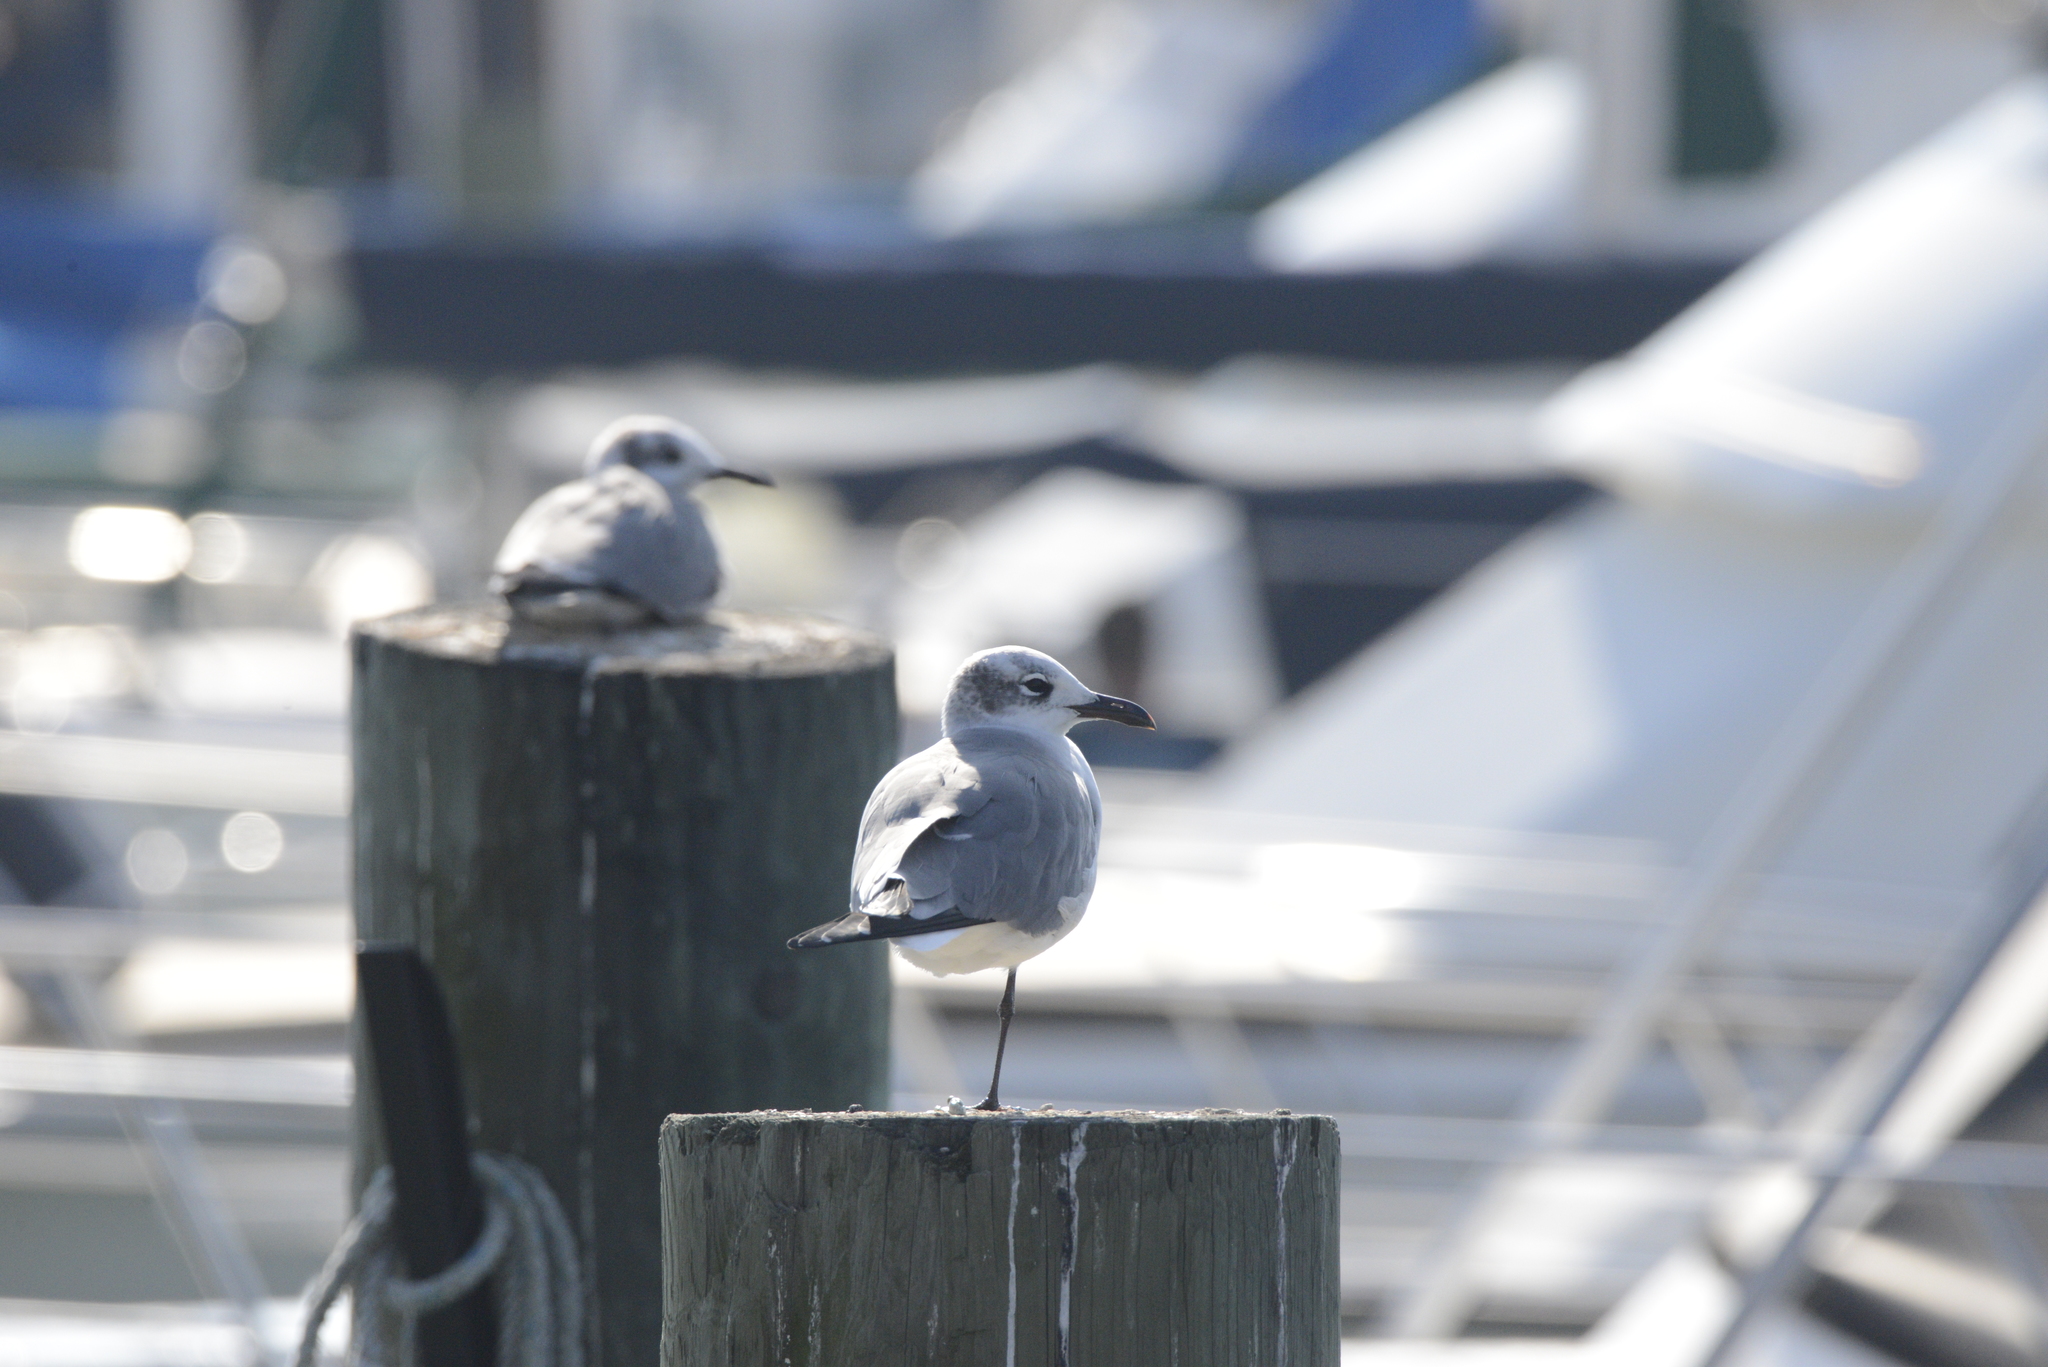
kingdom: Animalia
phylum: Chordata
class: Aves
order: Charadriiformes
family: Laridae
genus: Leucophaeus
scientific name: Leucophaeus atricilla
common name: Laughing gull
